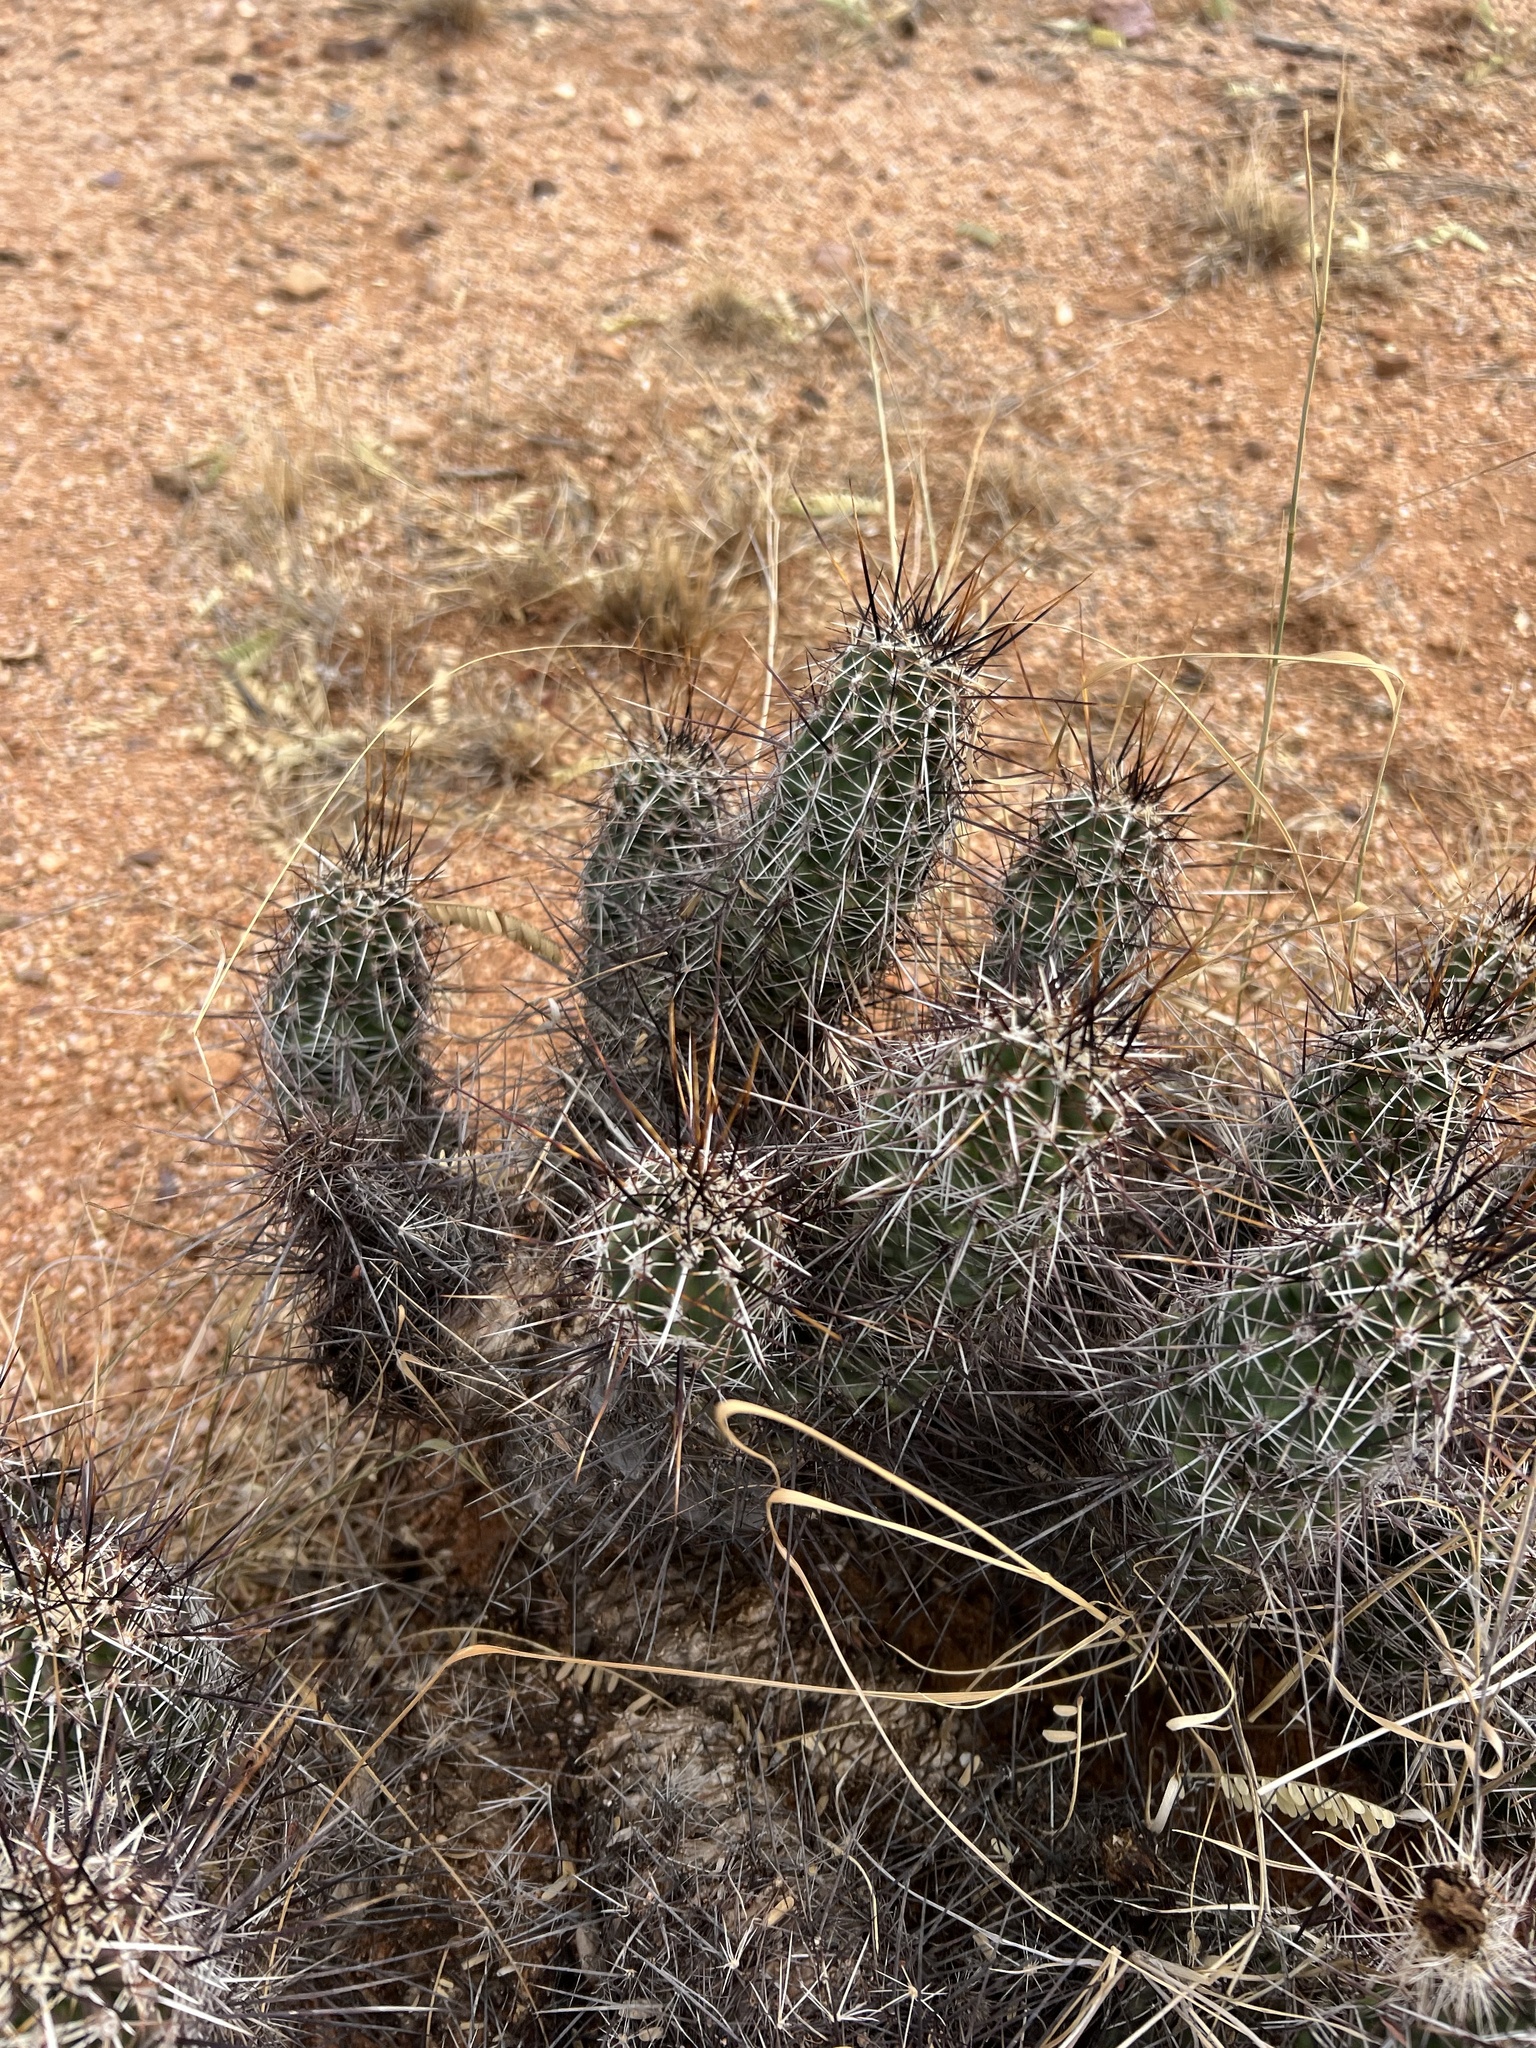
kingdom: Plantae
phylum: Tracheophyta
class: Magnoliopsida
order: Caryophyllales
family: Cactaceae
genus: Echinocereus
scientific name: Echinocereus fasciculatus
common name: Bundle hedgehog
